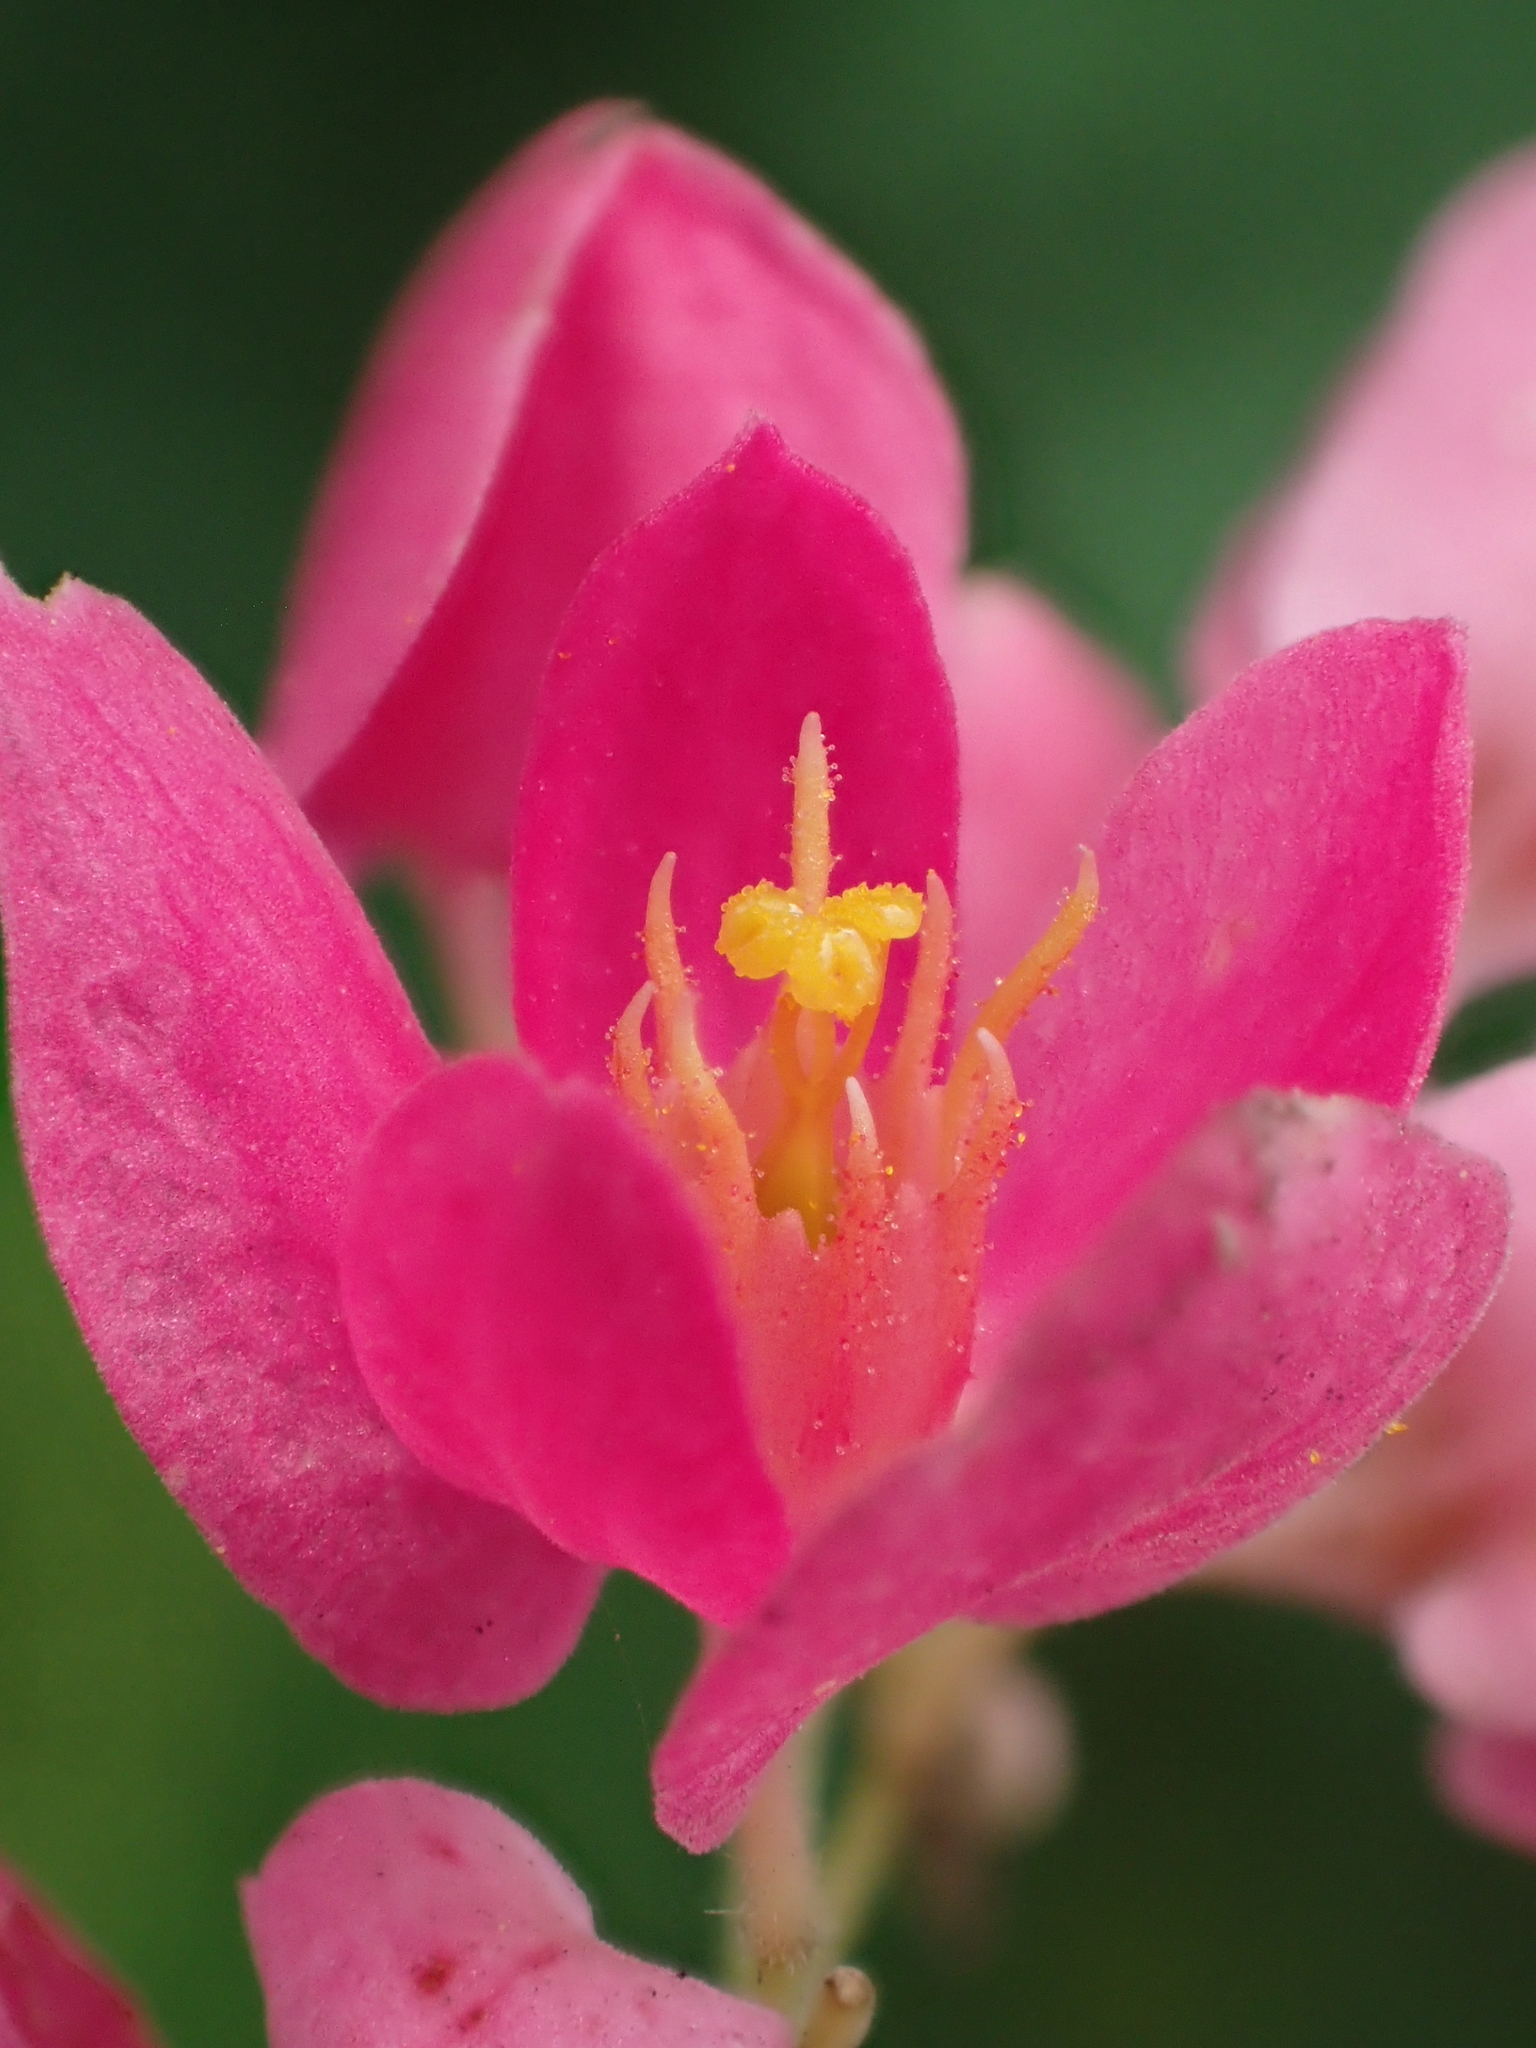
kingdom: Plantae
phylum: Tracheophyta
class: Magnoliopsida
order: Caryophyllales
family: Polygonaceae
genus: Antigonon
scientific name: Antigonon leptopus
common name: Coral vine
